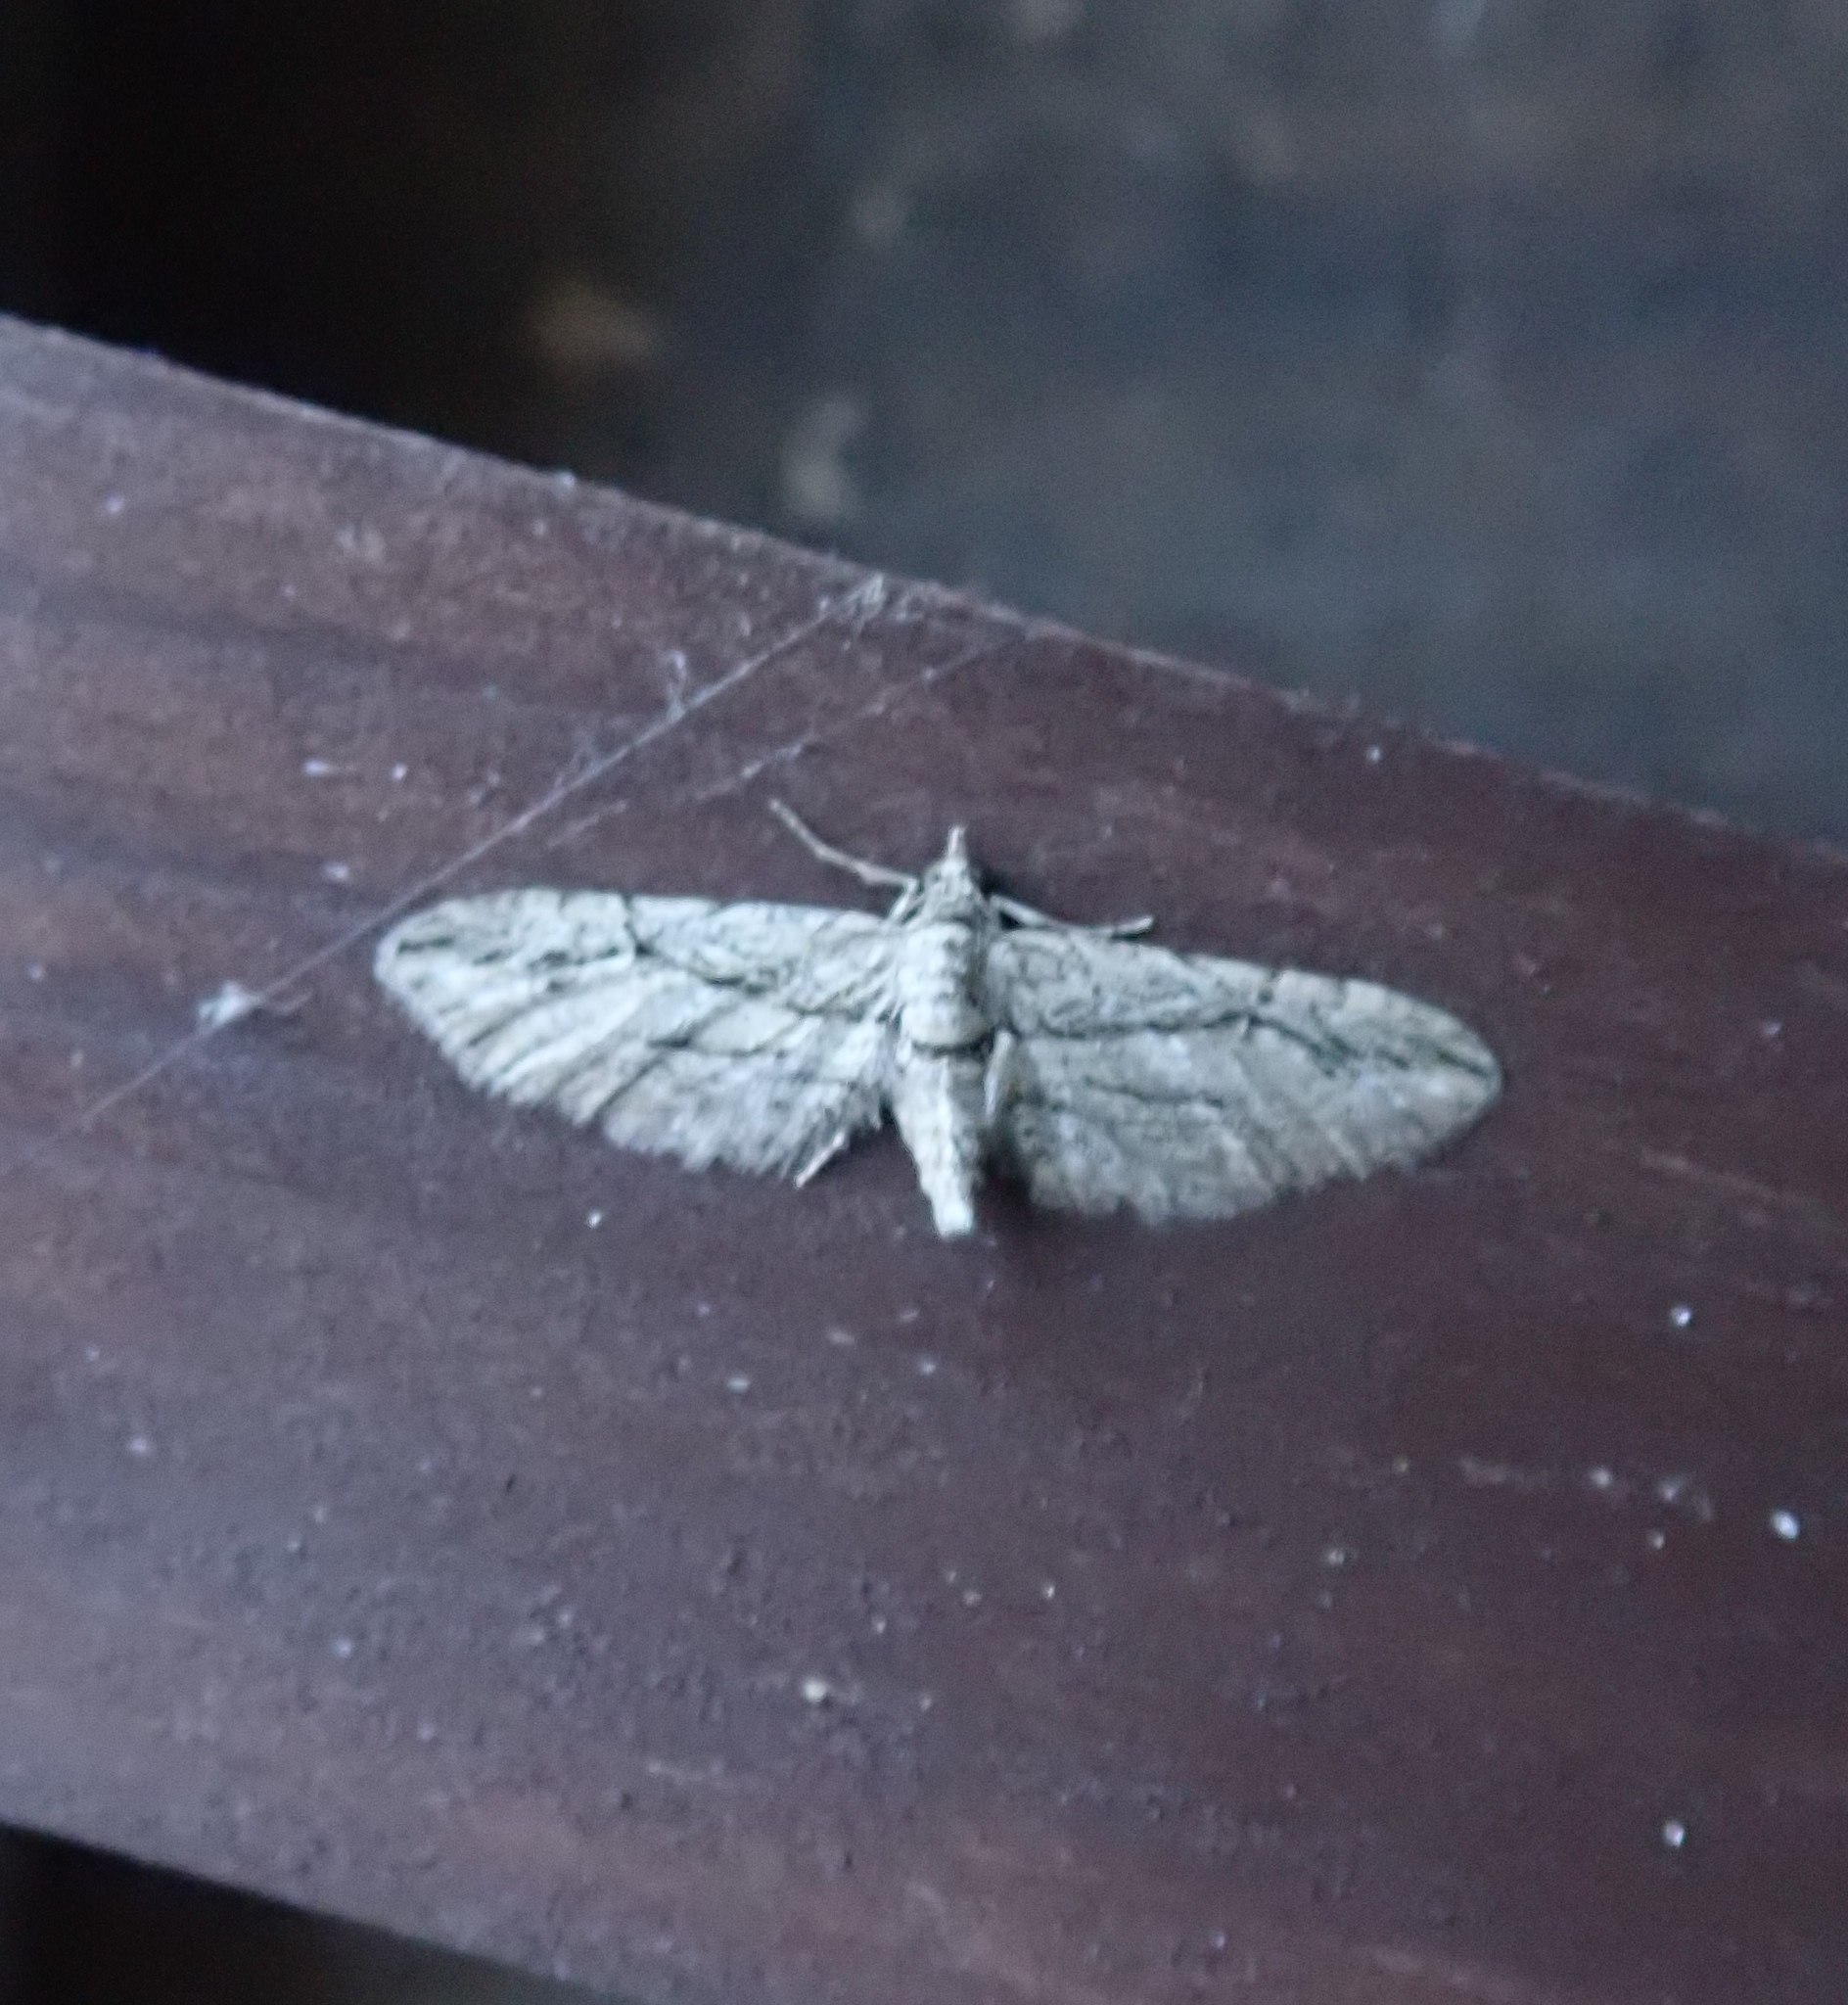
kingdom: Animalia
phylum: Arthropoda
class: Insecta
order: Lepidoptera
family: Geometridae
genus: Eupithecia
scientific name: Eupithecia phoeniceata
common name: Cypress pug
